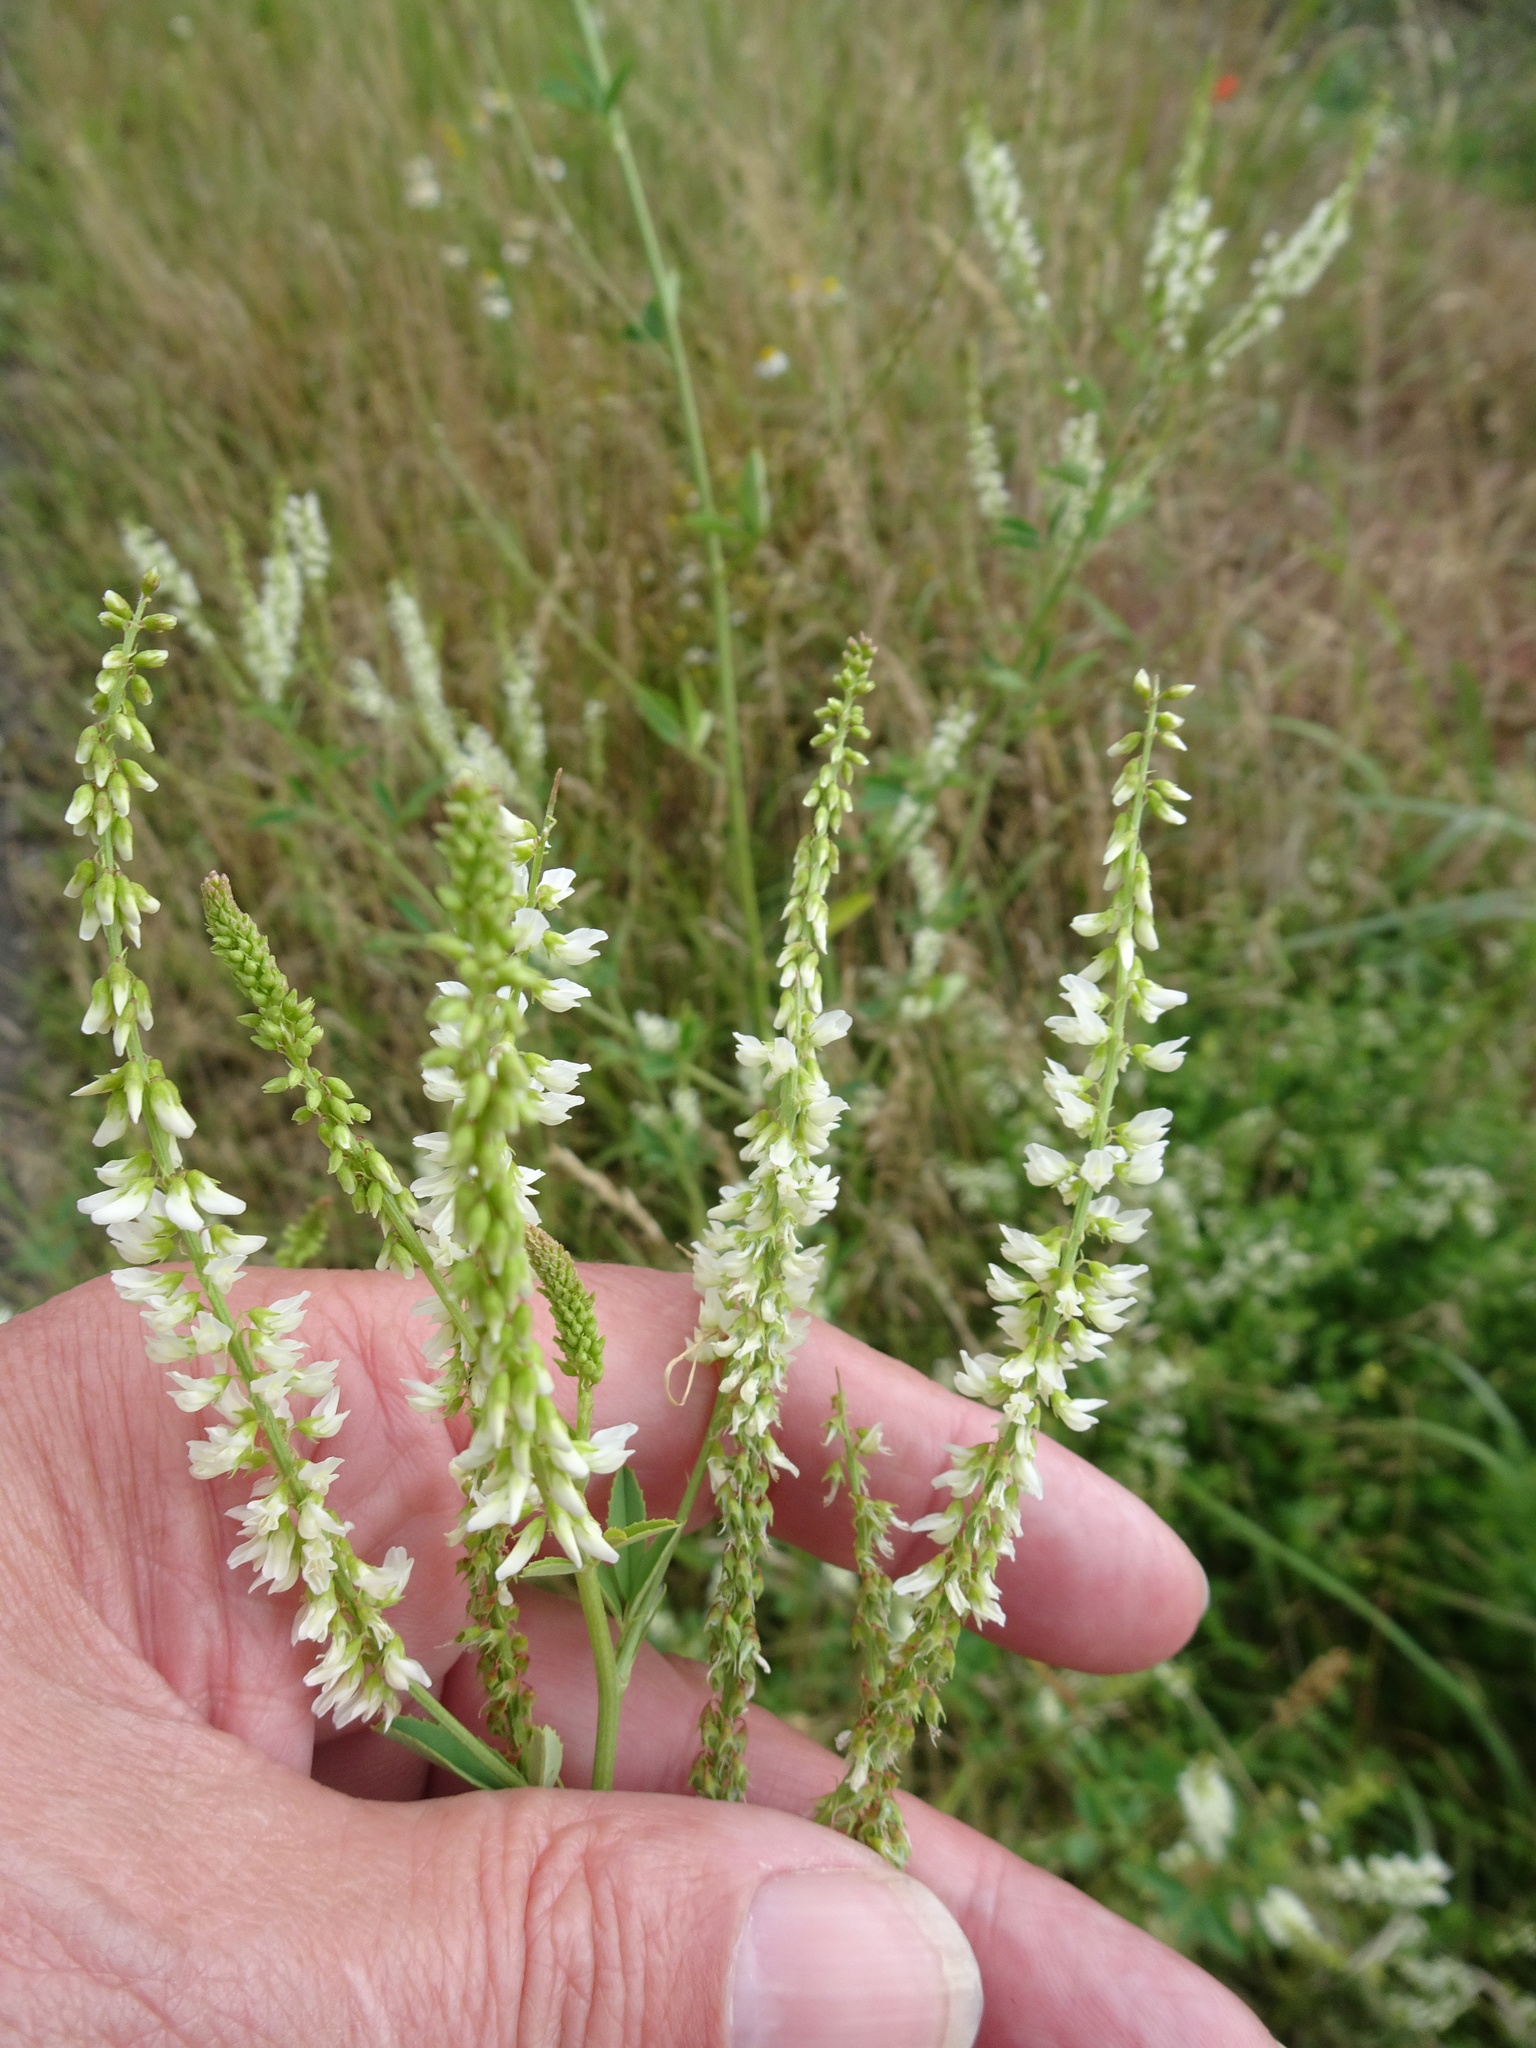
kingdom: Plantae
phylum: Tracheophyta
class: Magnoliopsida
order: Fabales
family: Fabaceae
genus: Melilotus
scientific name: Melilotus albus
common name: White melilot
